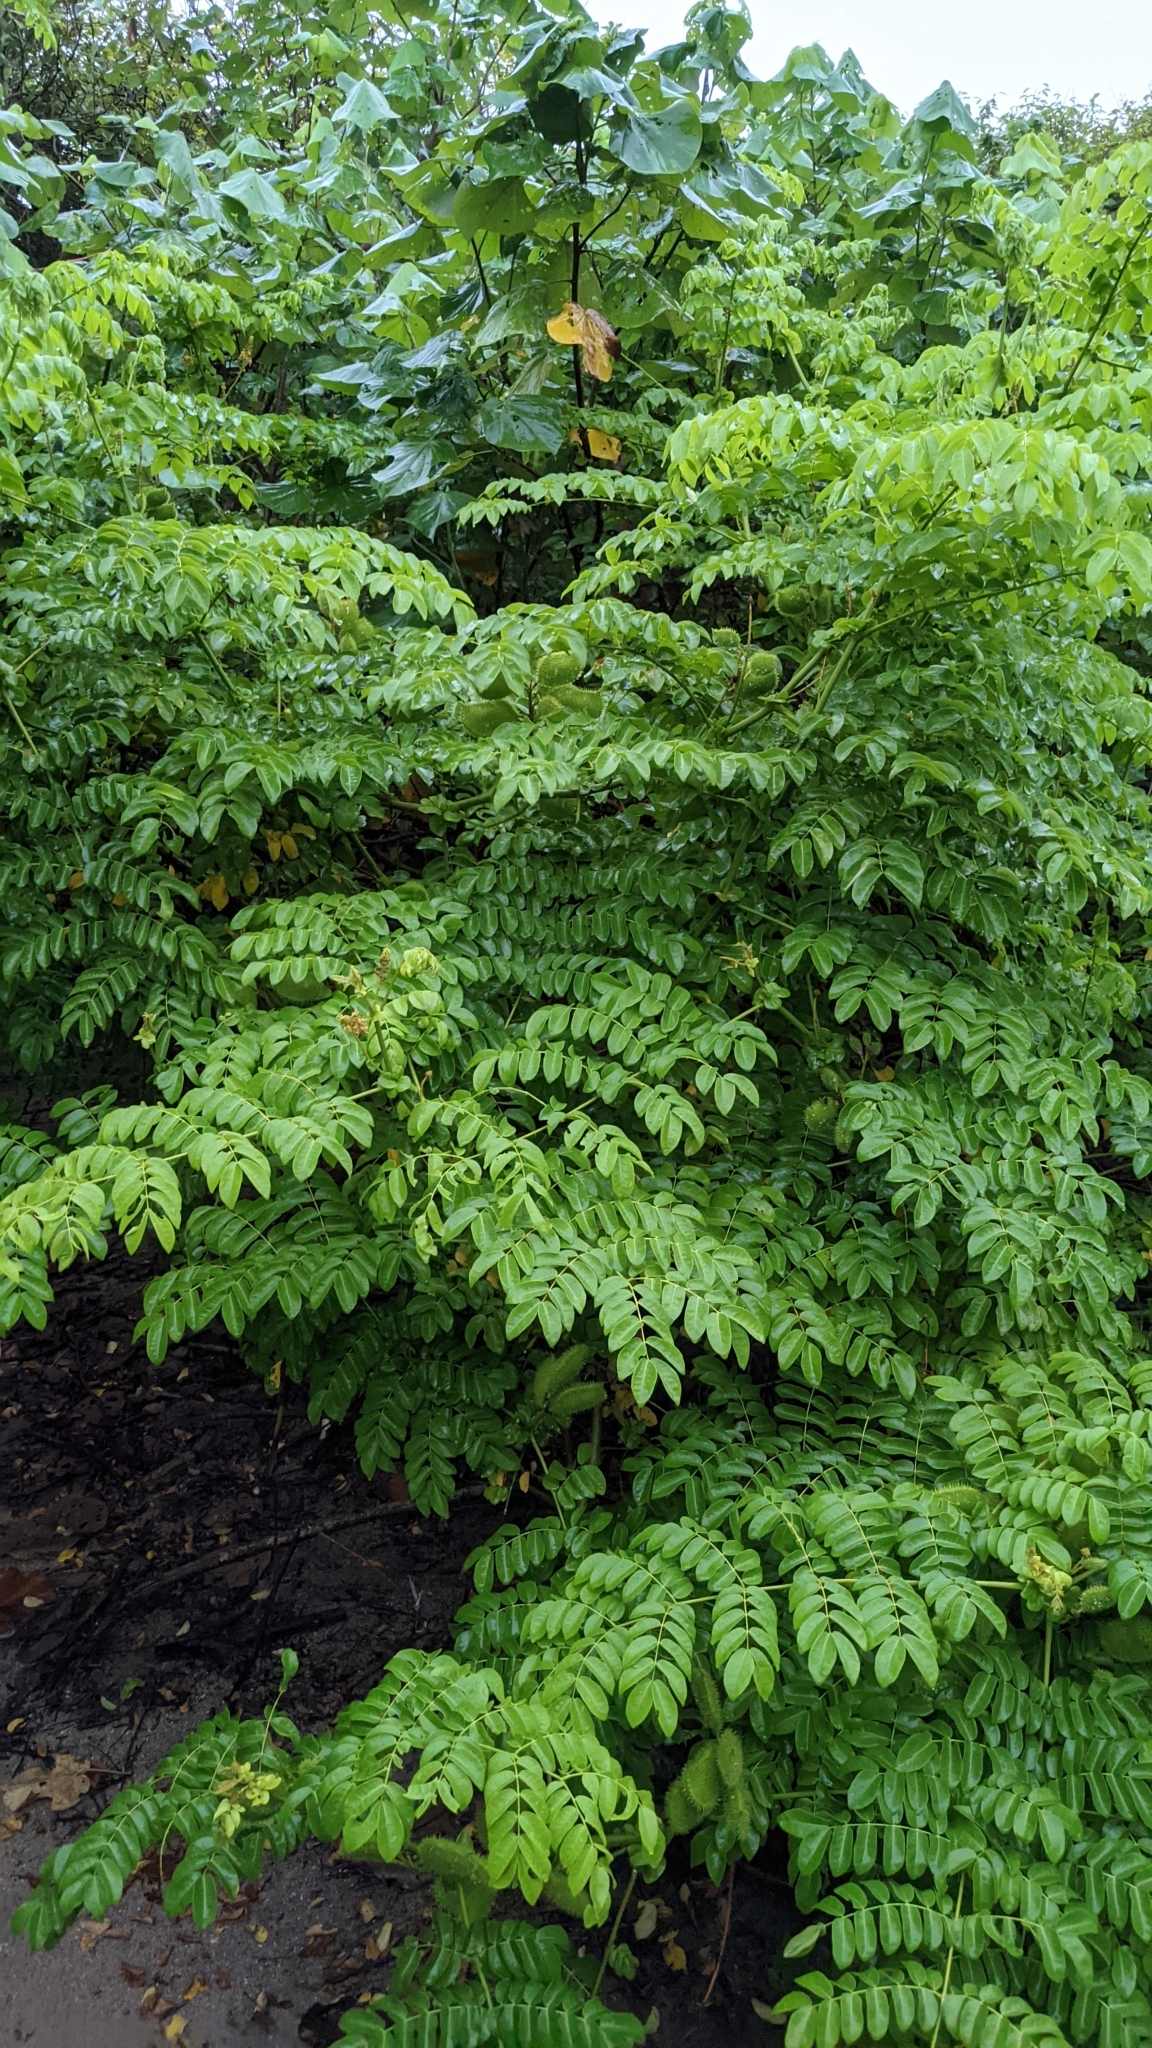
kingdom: Plantae
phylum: Tracheophyta
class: Magnoliopsida
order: Fabales
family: Fabaceae
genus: Guilandina
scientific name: Guilandina bonduc
